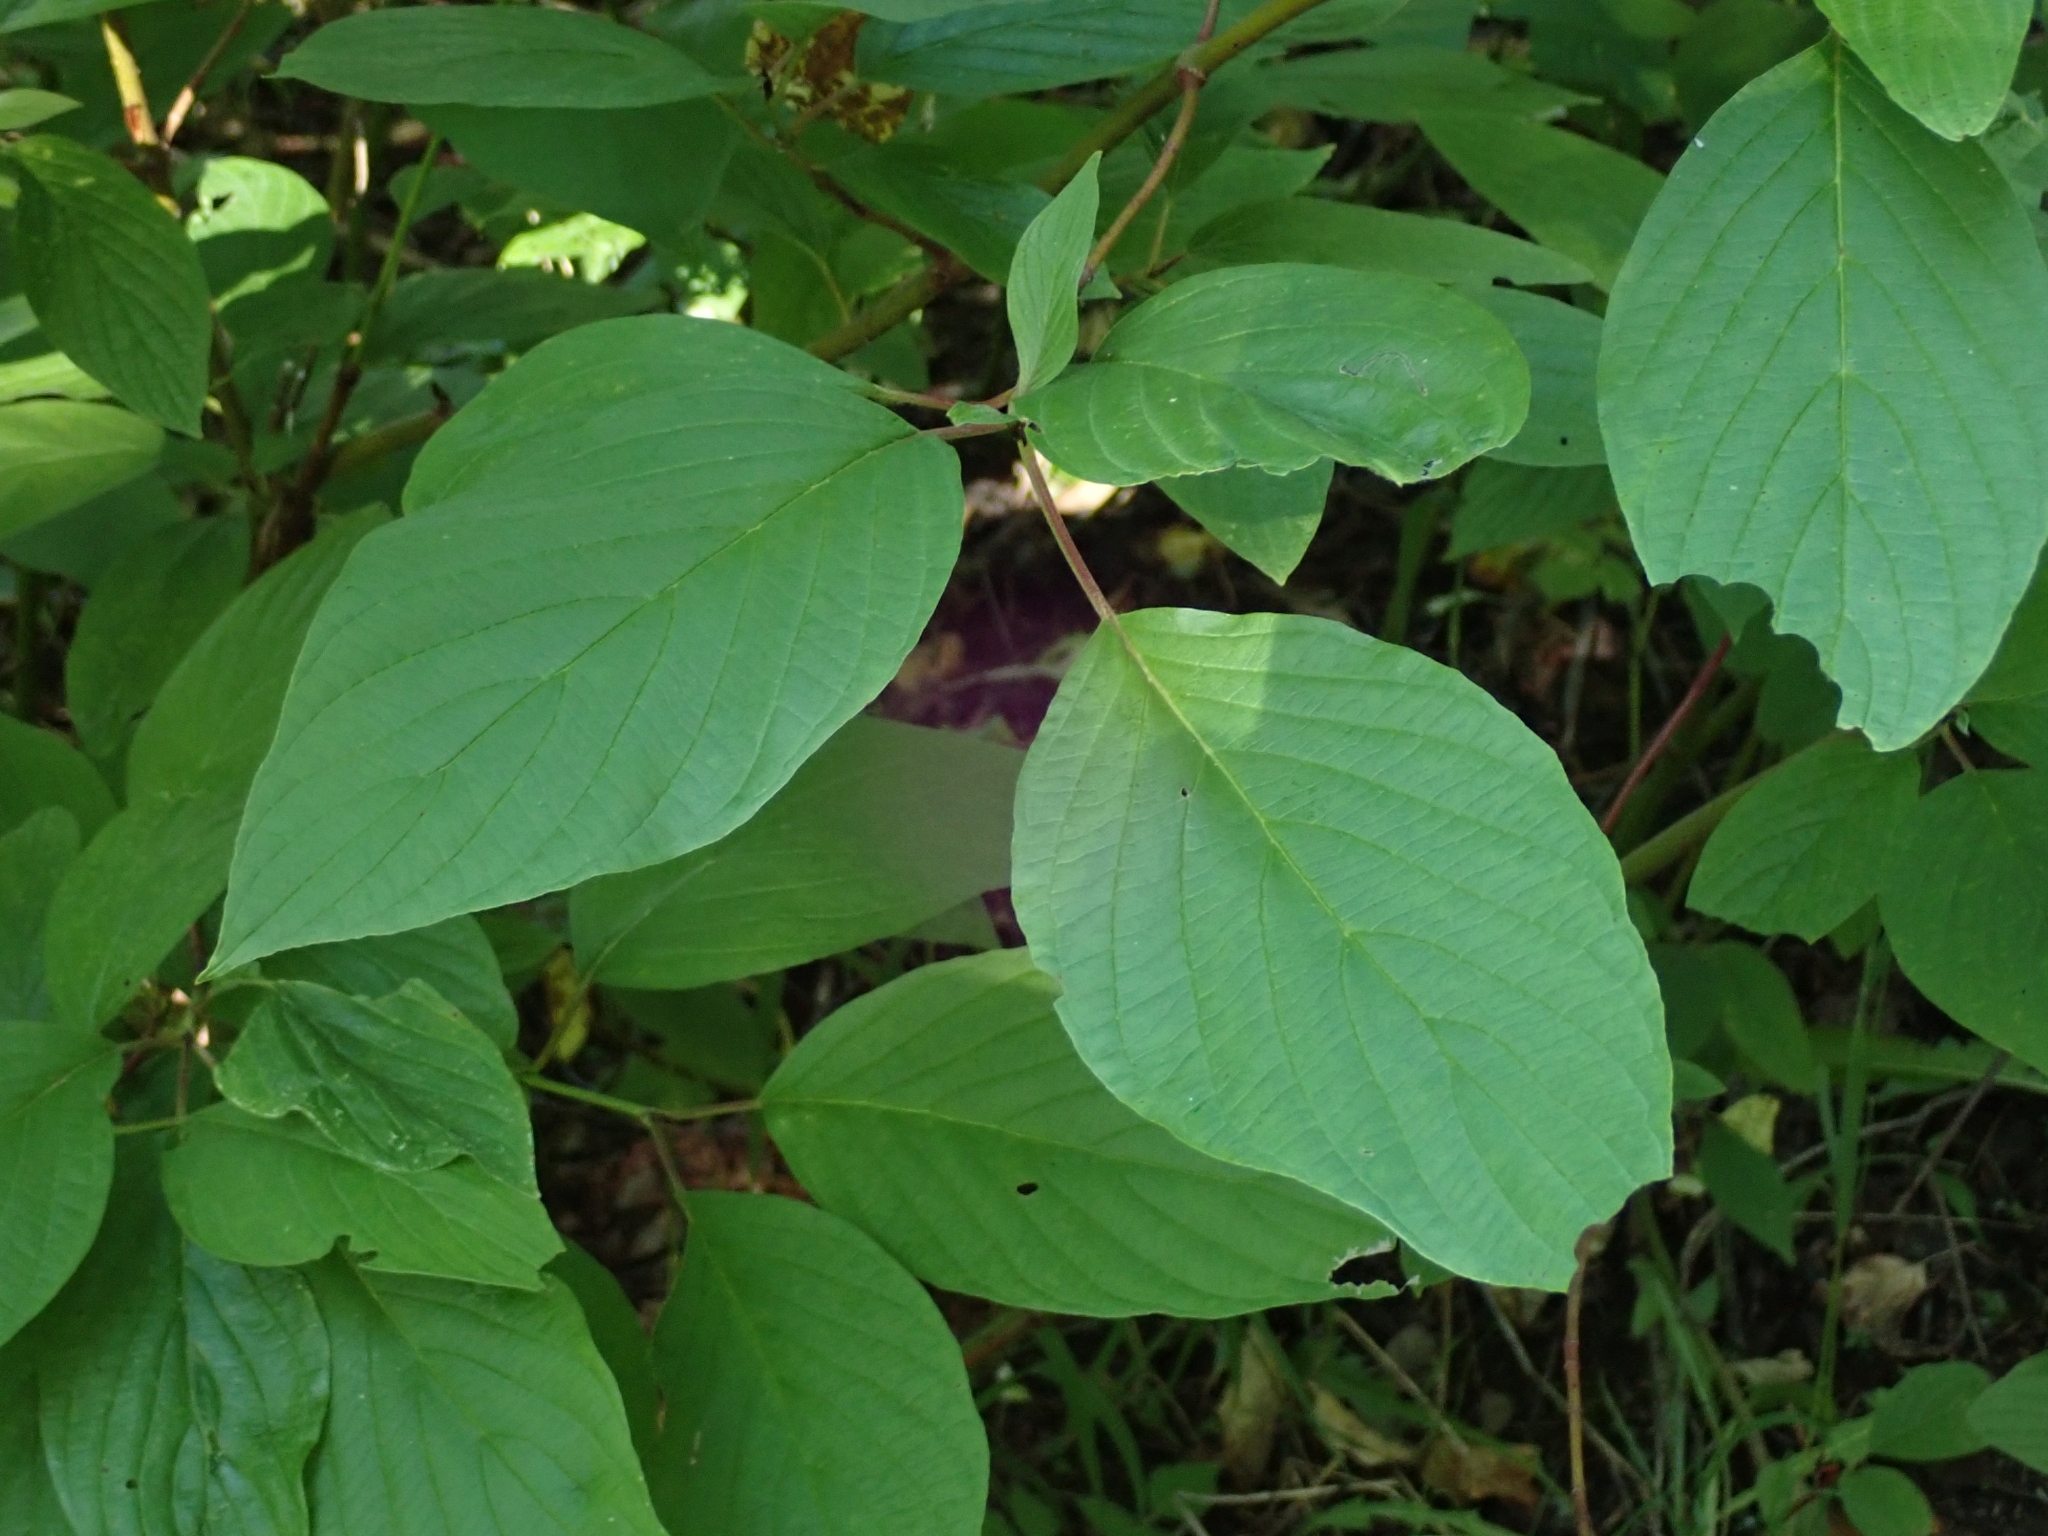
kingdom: Plantae
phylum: Tracheophyta
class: Magnoliopsida
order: Cornales
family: Cornaceae
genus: Cornus
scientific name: Cornus sericea
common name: Red-osier dogwood
